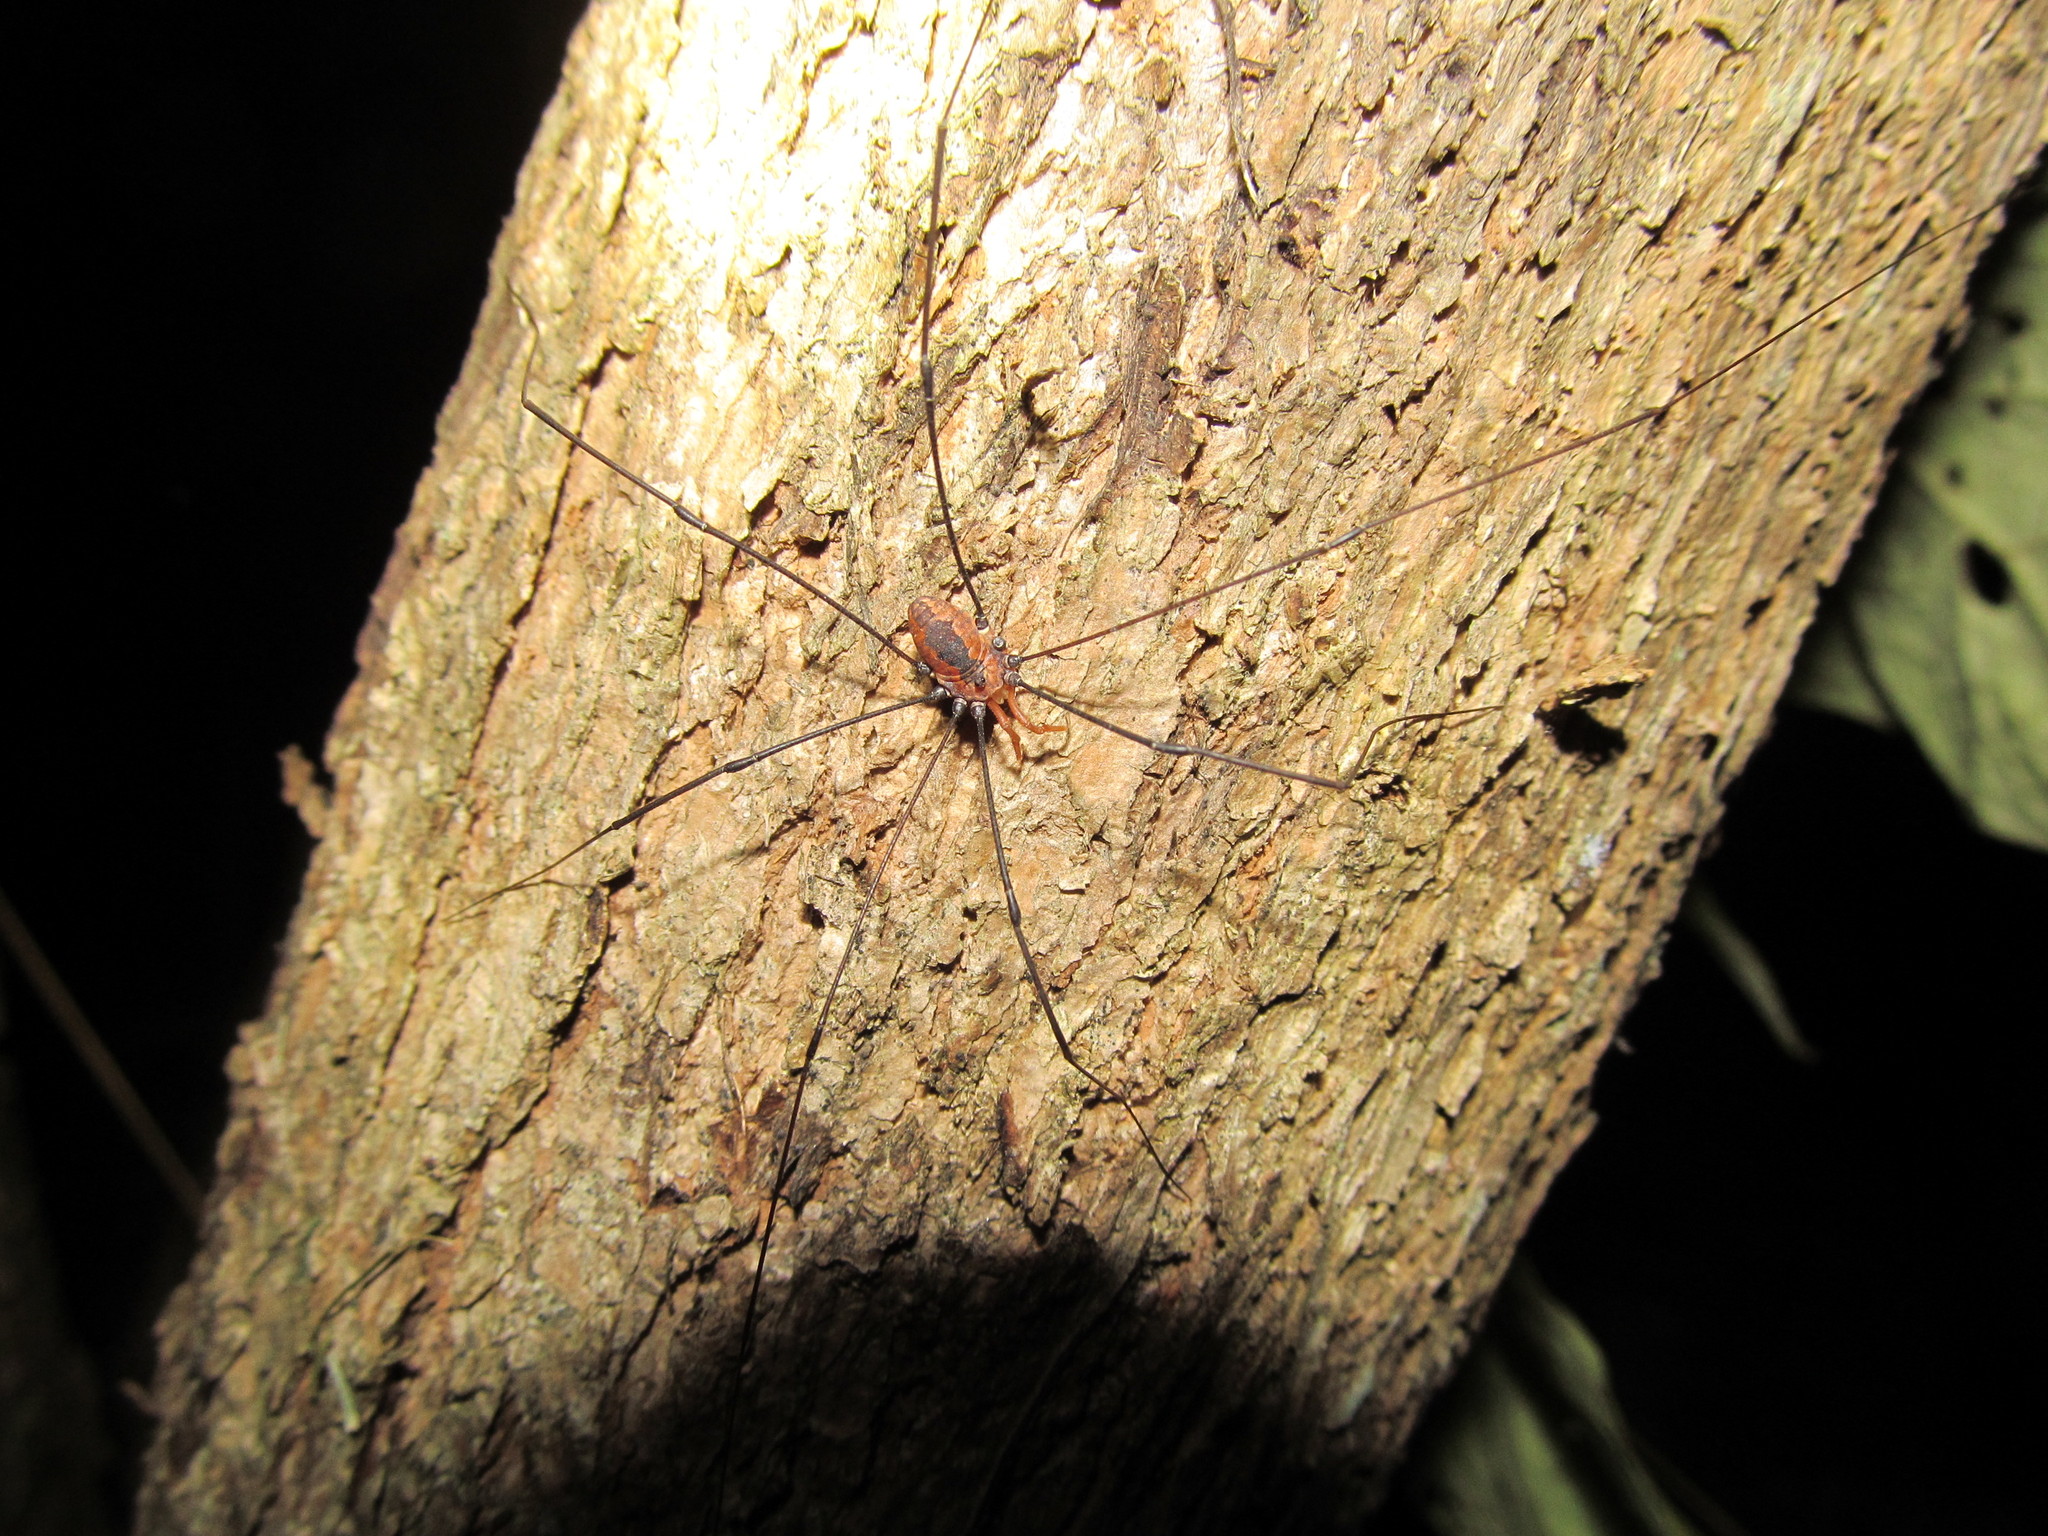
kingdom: Animalia
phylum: Arthropoda
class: Arachnida
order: Opiliones
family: Sclerosomatidae
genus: Leiobunum
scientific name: Leiobunum vittatum
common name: Eastern harvestman
